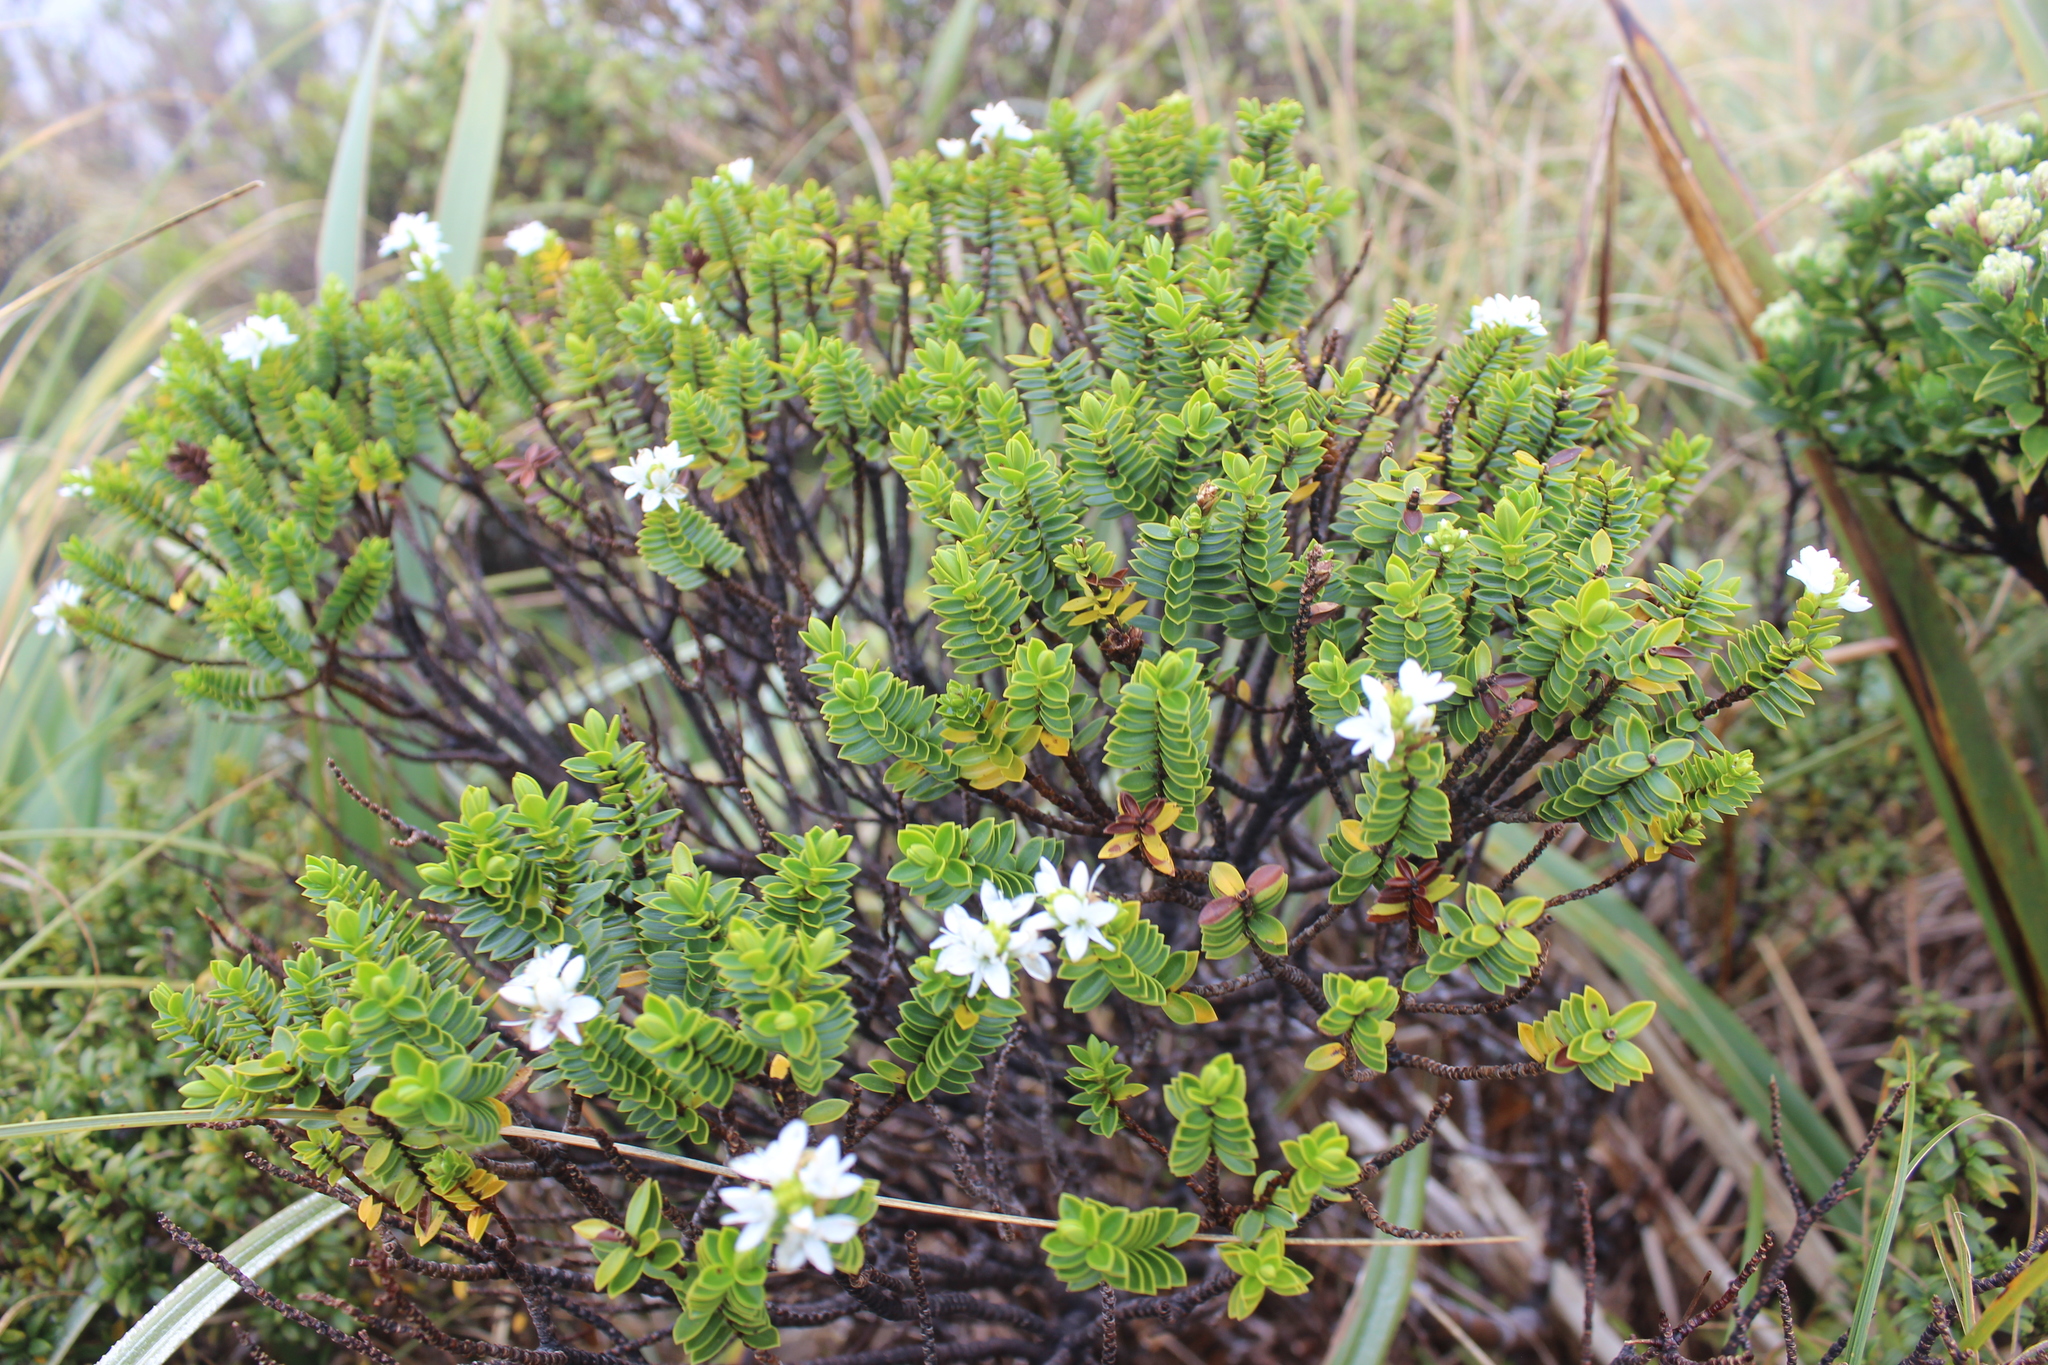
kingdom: Plantae
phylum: Tracheophyta
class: Magnoliopsida
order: Lamiales
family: Plantaginaceae
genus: Veronica
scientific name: Veronica odora
